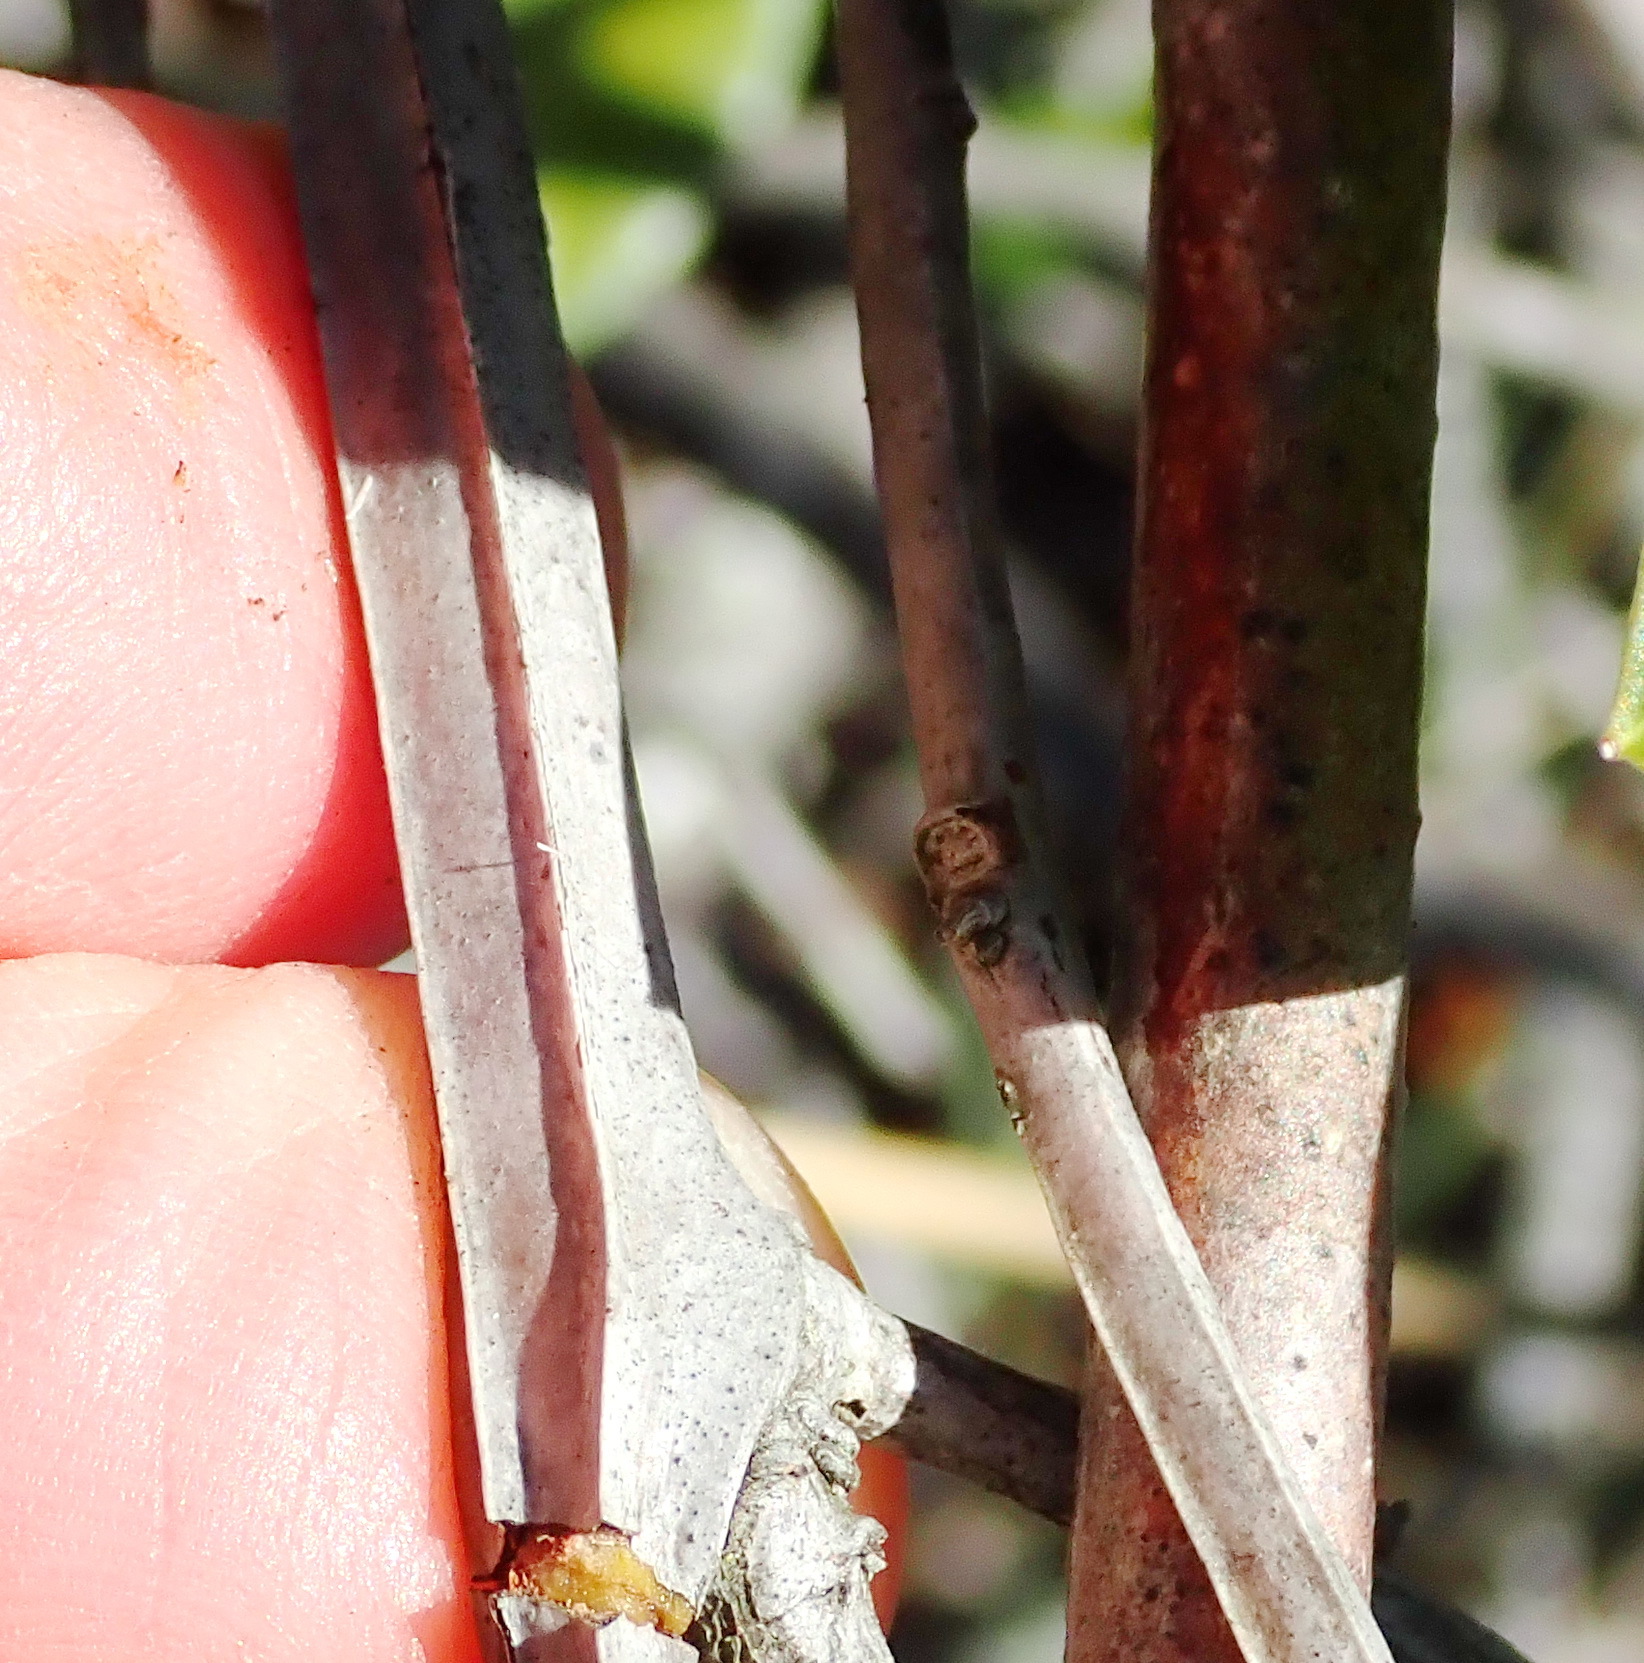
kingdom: Plantae
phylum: Tracheophyta
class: Magnoliopsida
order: Celastrales
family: Celastraceae
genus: Lauridia
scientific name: Lauridia tetragona
